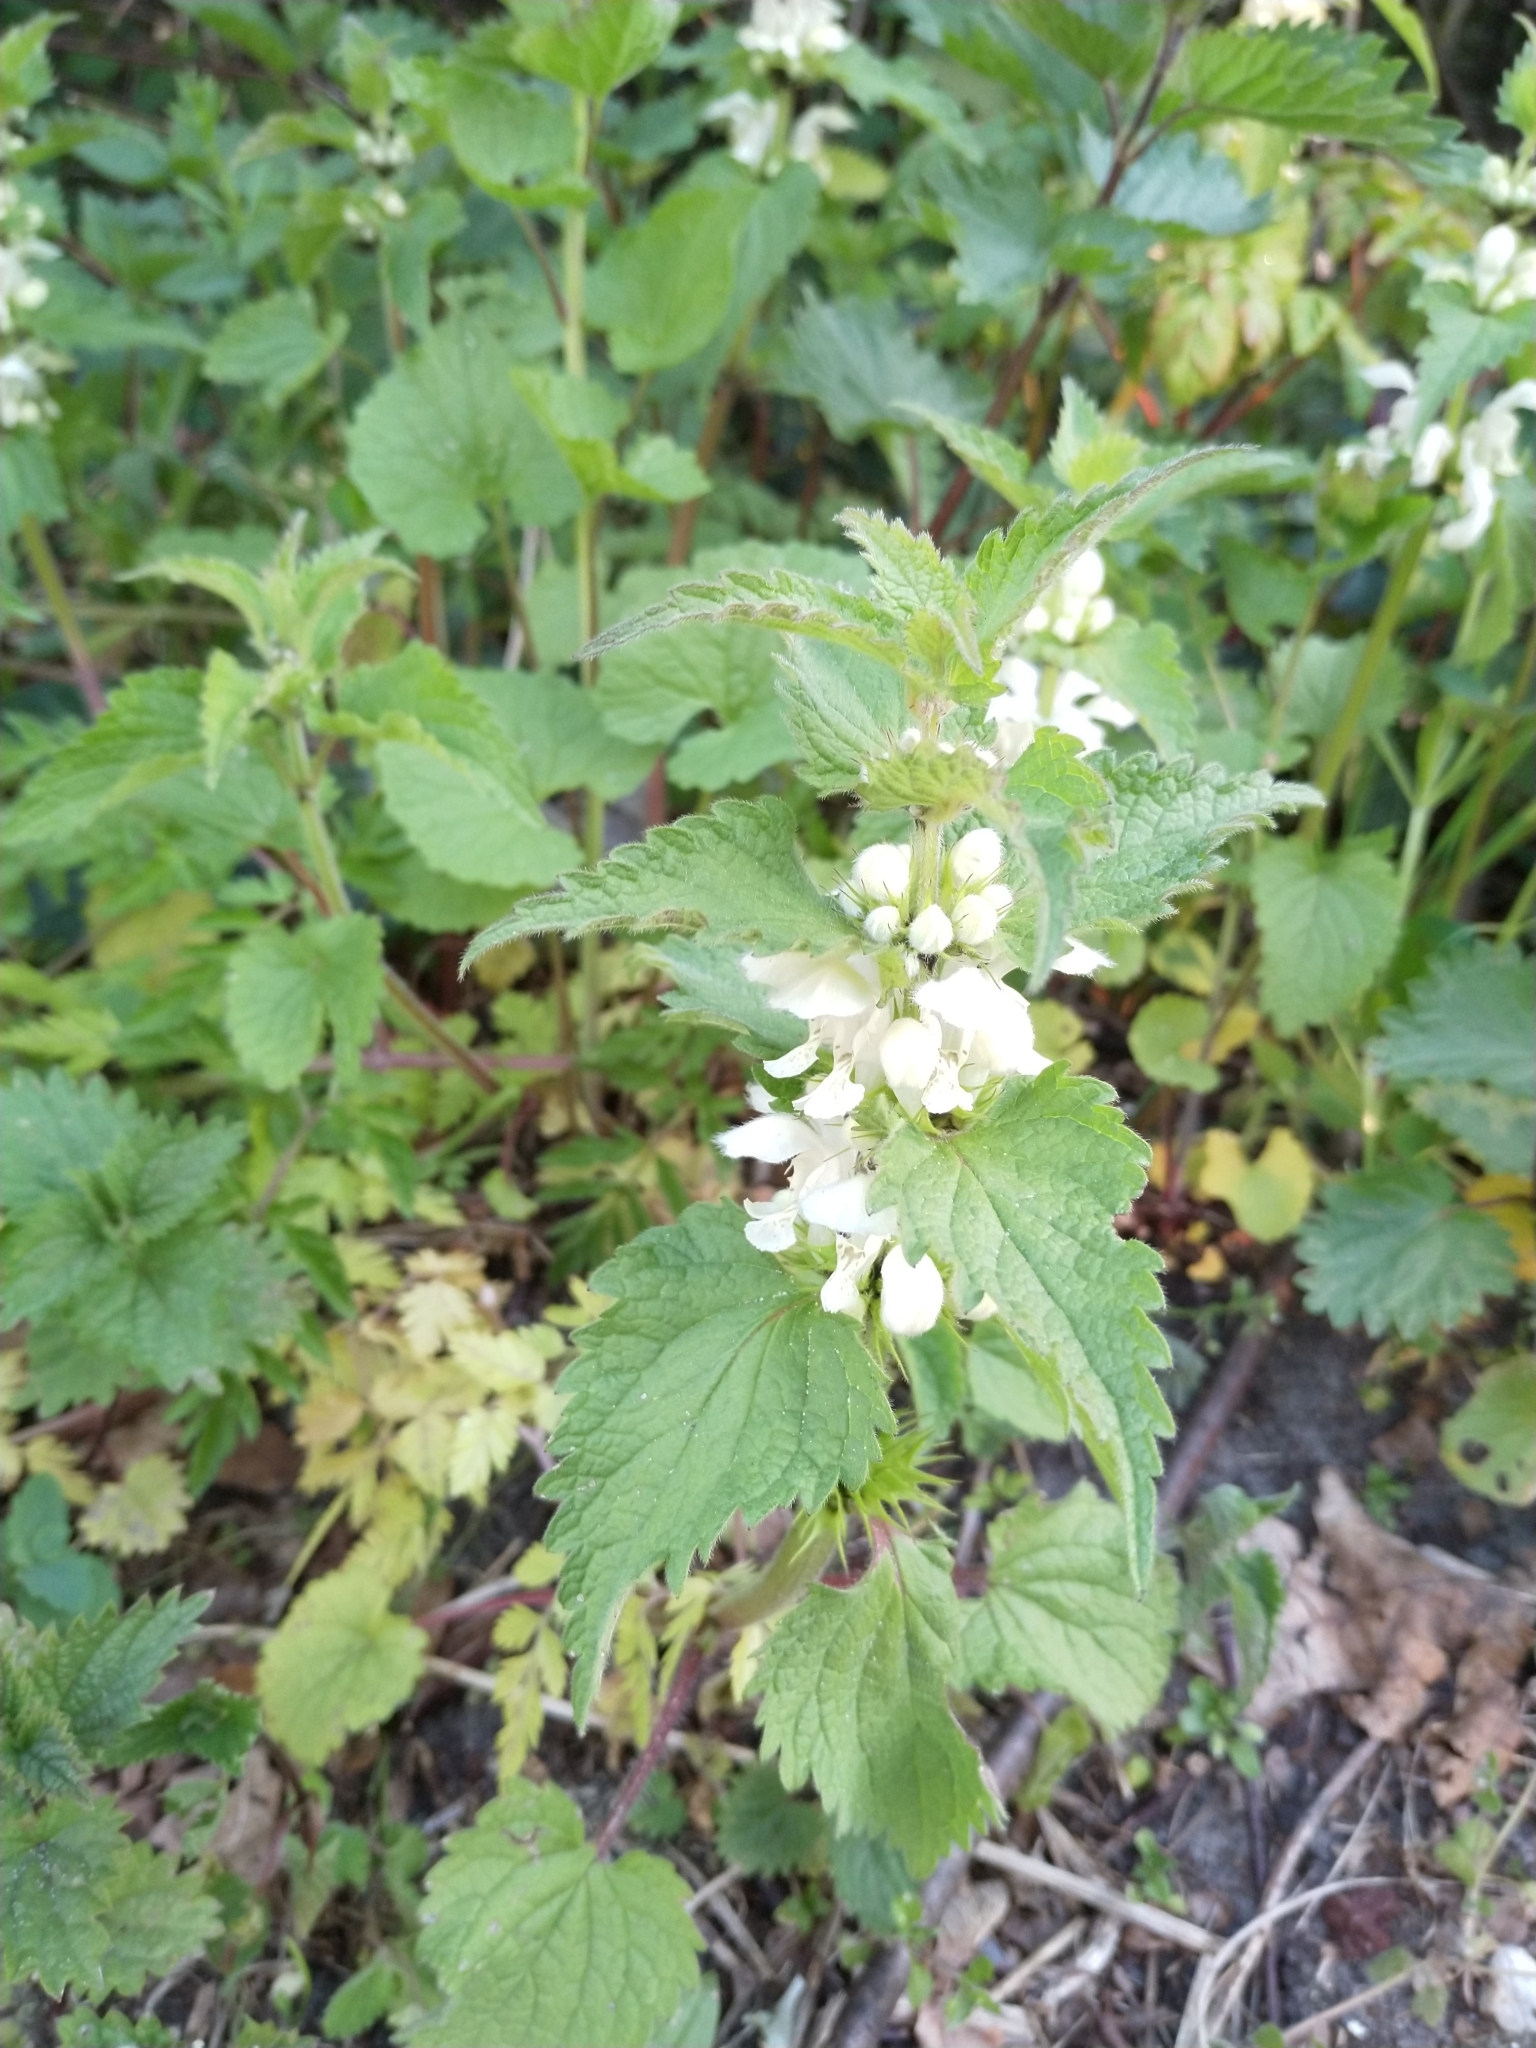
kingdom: Plantae
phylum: Tracheophyta
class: Magnoliopsida
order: Lamiales
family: Lamiaceae
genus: Lamium
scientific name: Lamium album
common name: White dead-nettle
